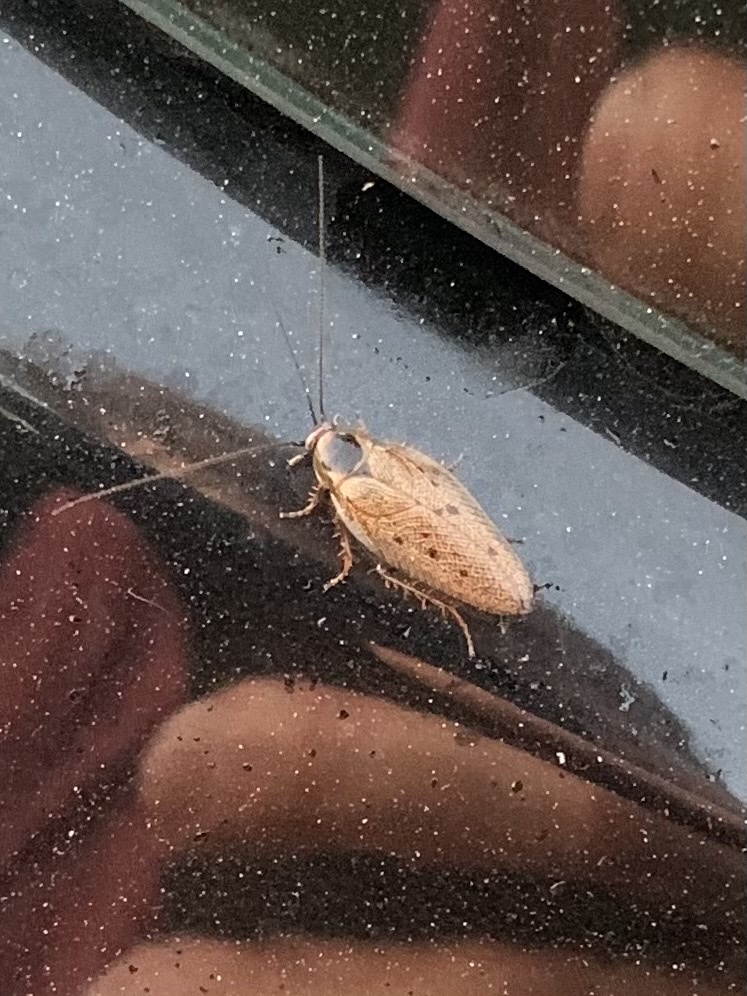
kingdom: Animalia
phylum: Arthropoda
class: Insecta
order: Blattodea
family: Ectobiidae
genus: Ectobius
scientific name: Ectobius lapponicus
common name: Dusky cockroach
